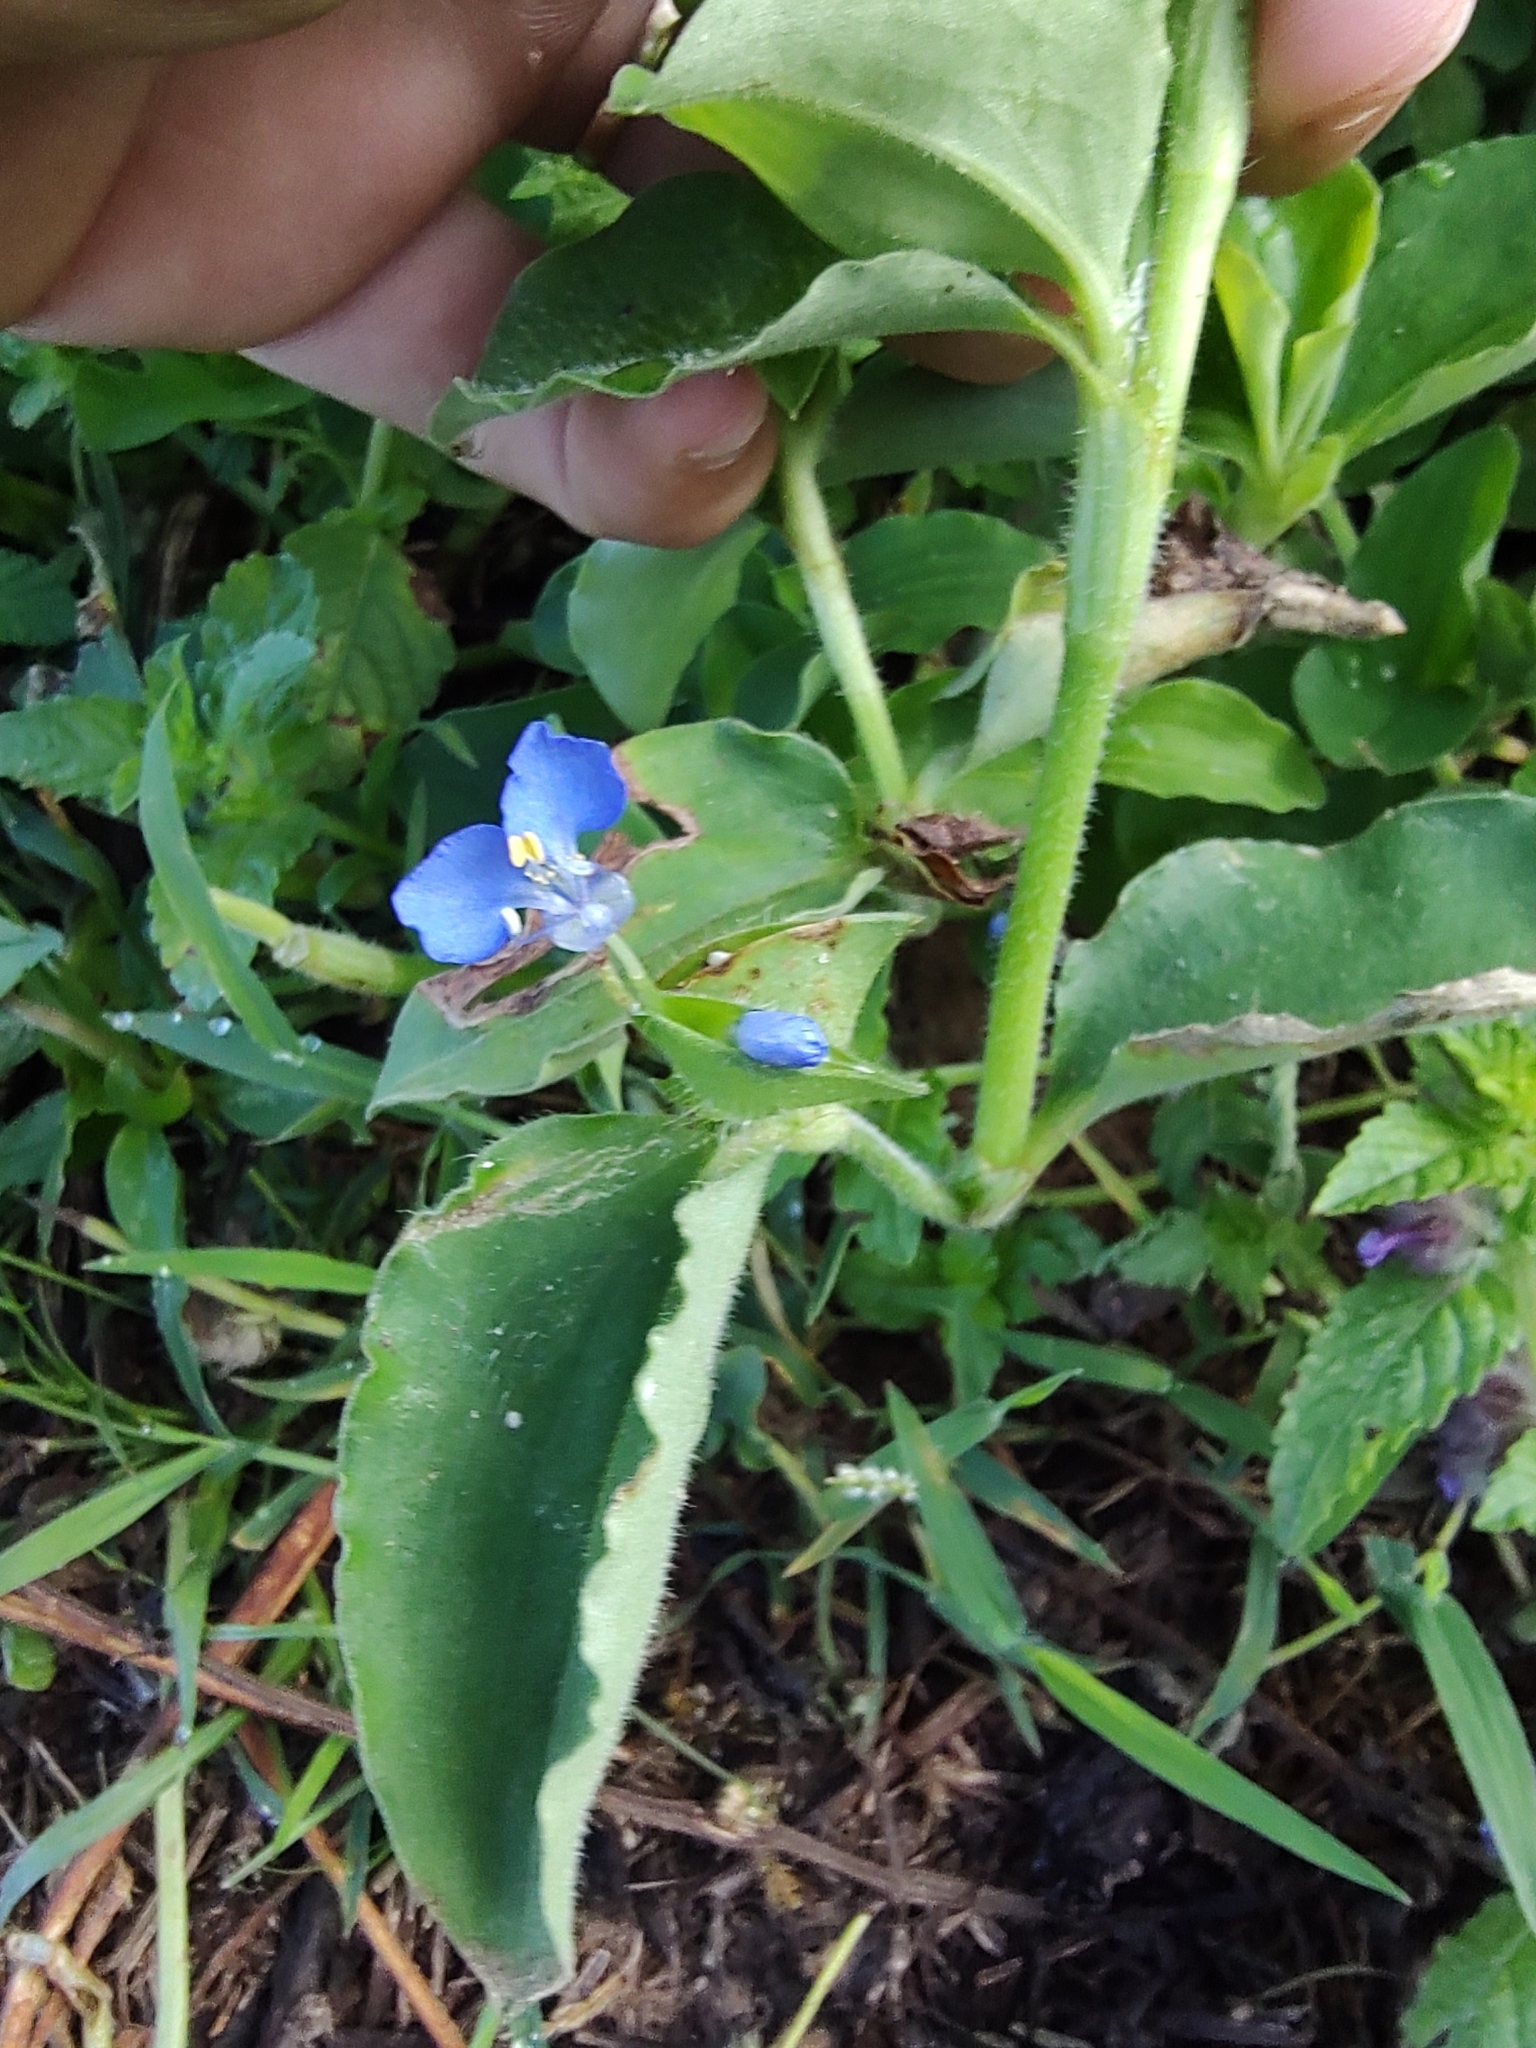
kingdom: Plantae
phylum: Tracheophyta
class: Liliopsida
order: Commelinales
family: Commelinaceae
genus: Commelina
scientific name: Commelina benghalensis
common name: Jio
